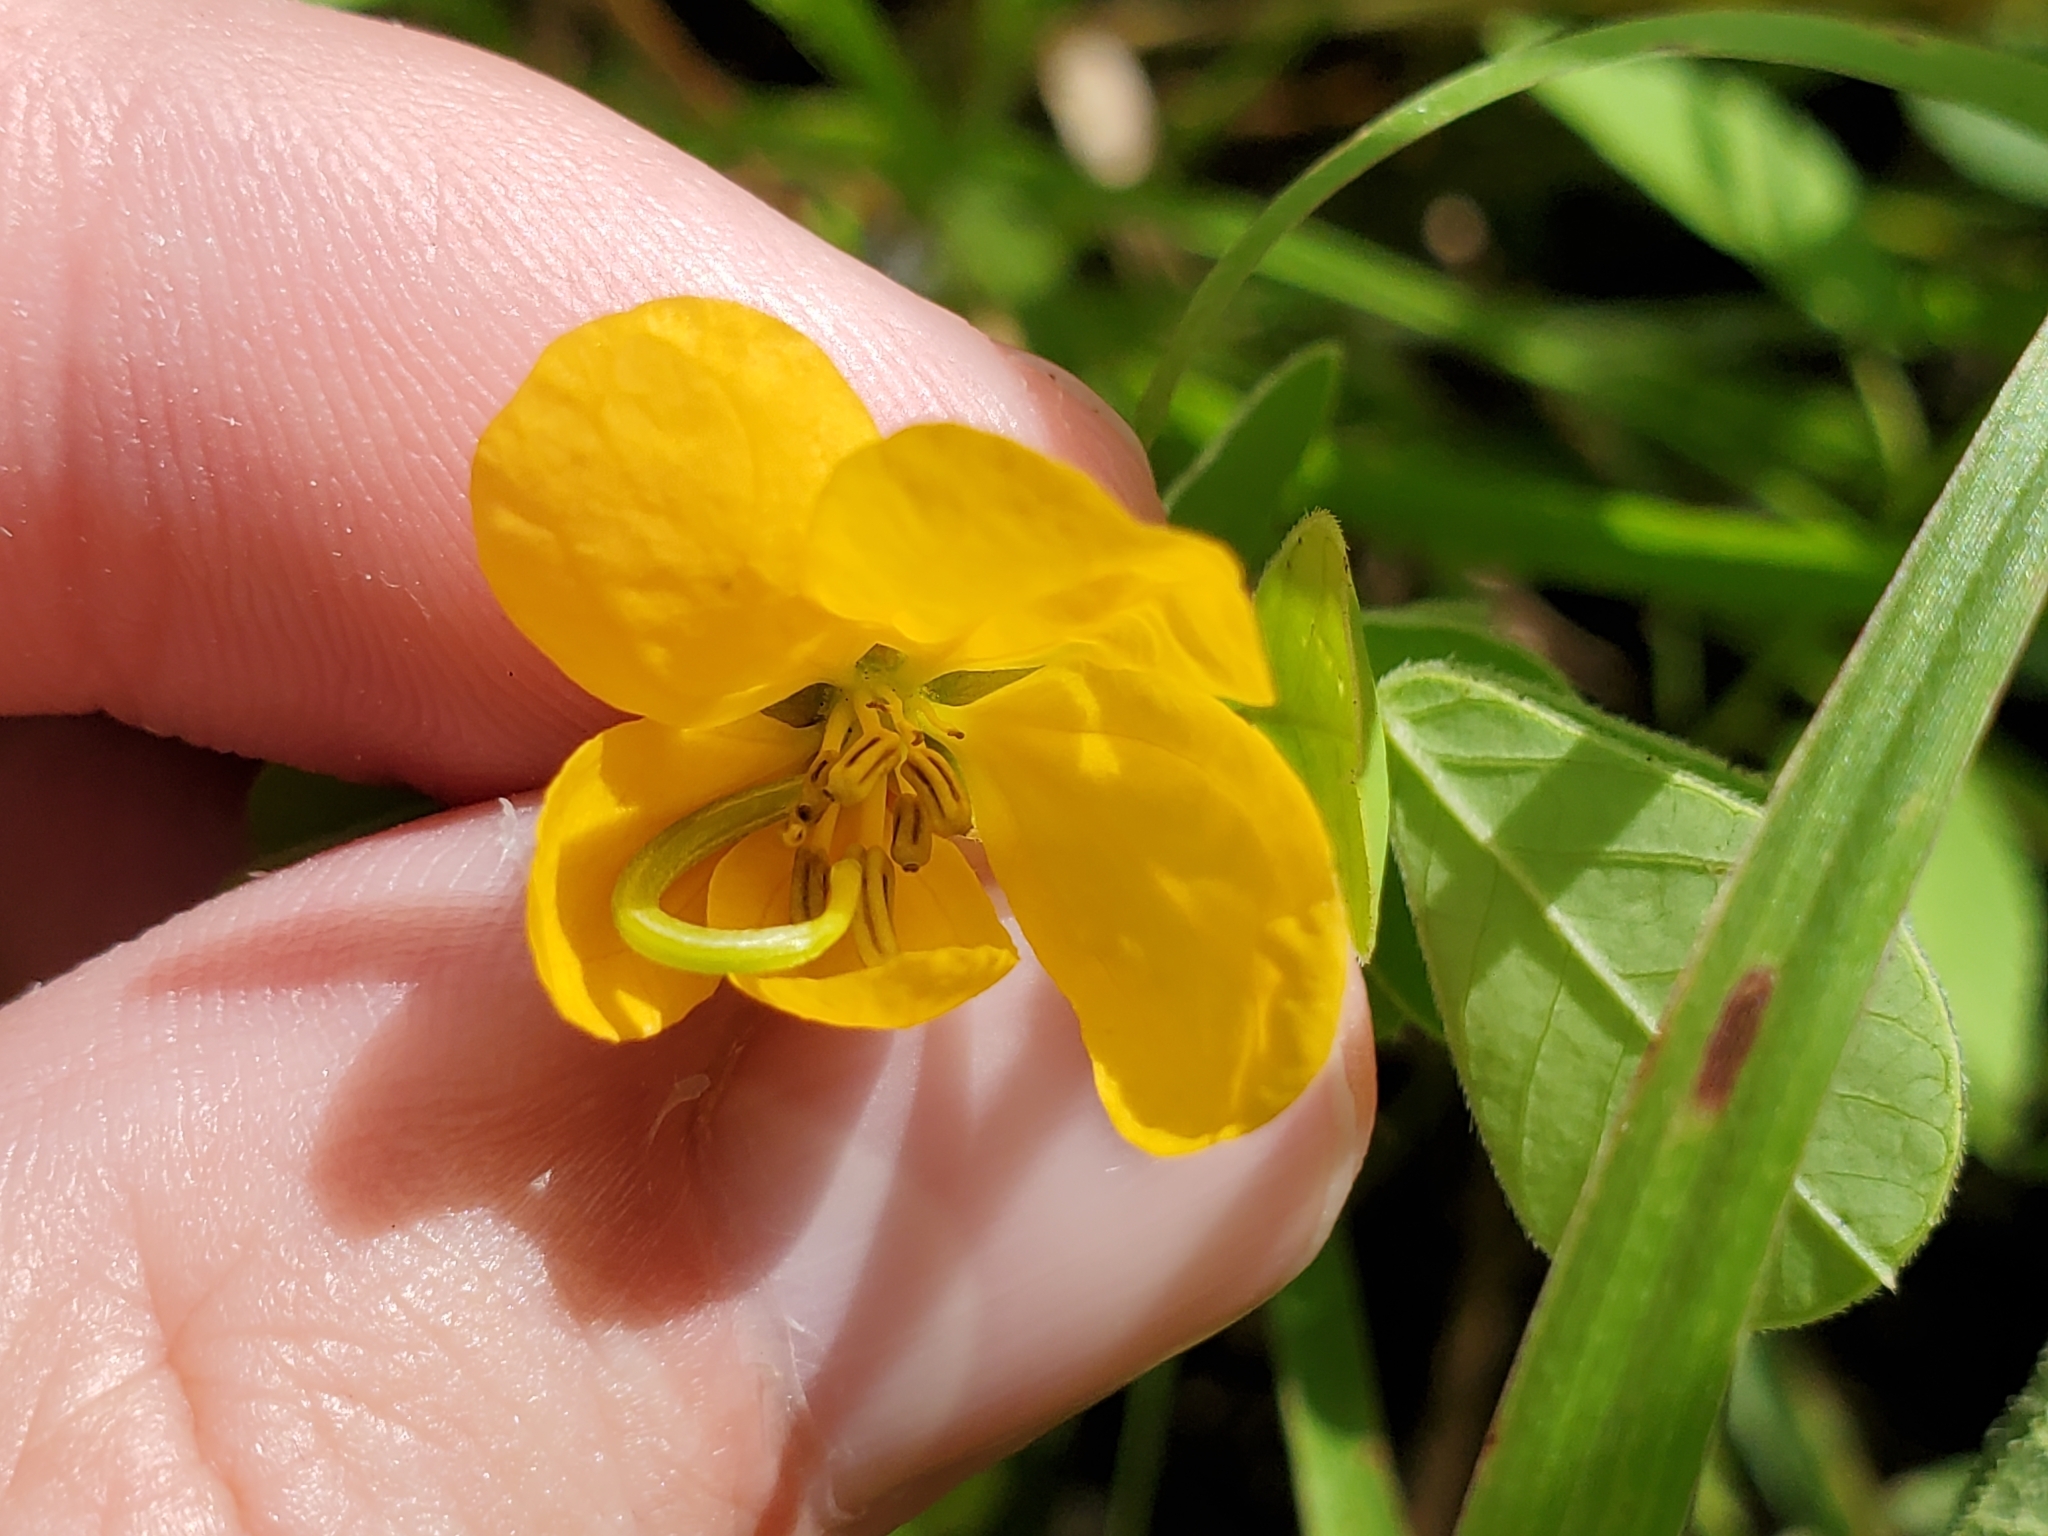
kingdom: Plantae
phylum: Tracheophyta
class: Magnoliopsida
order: Fabales
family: Fabaceae
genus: Senna
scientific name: Senna obtusifolia
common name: Java-bean
